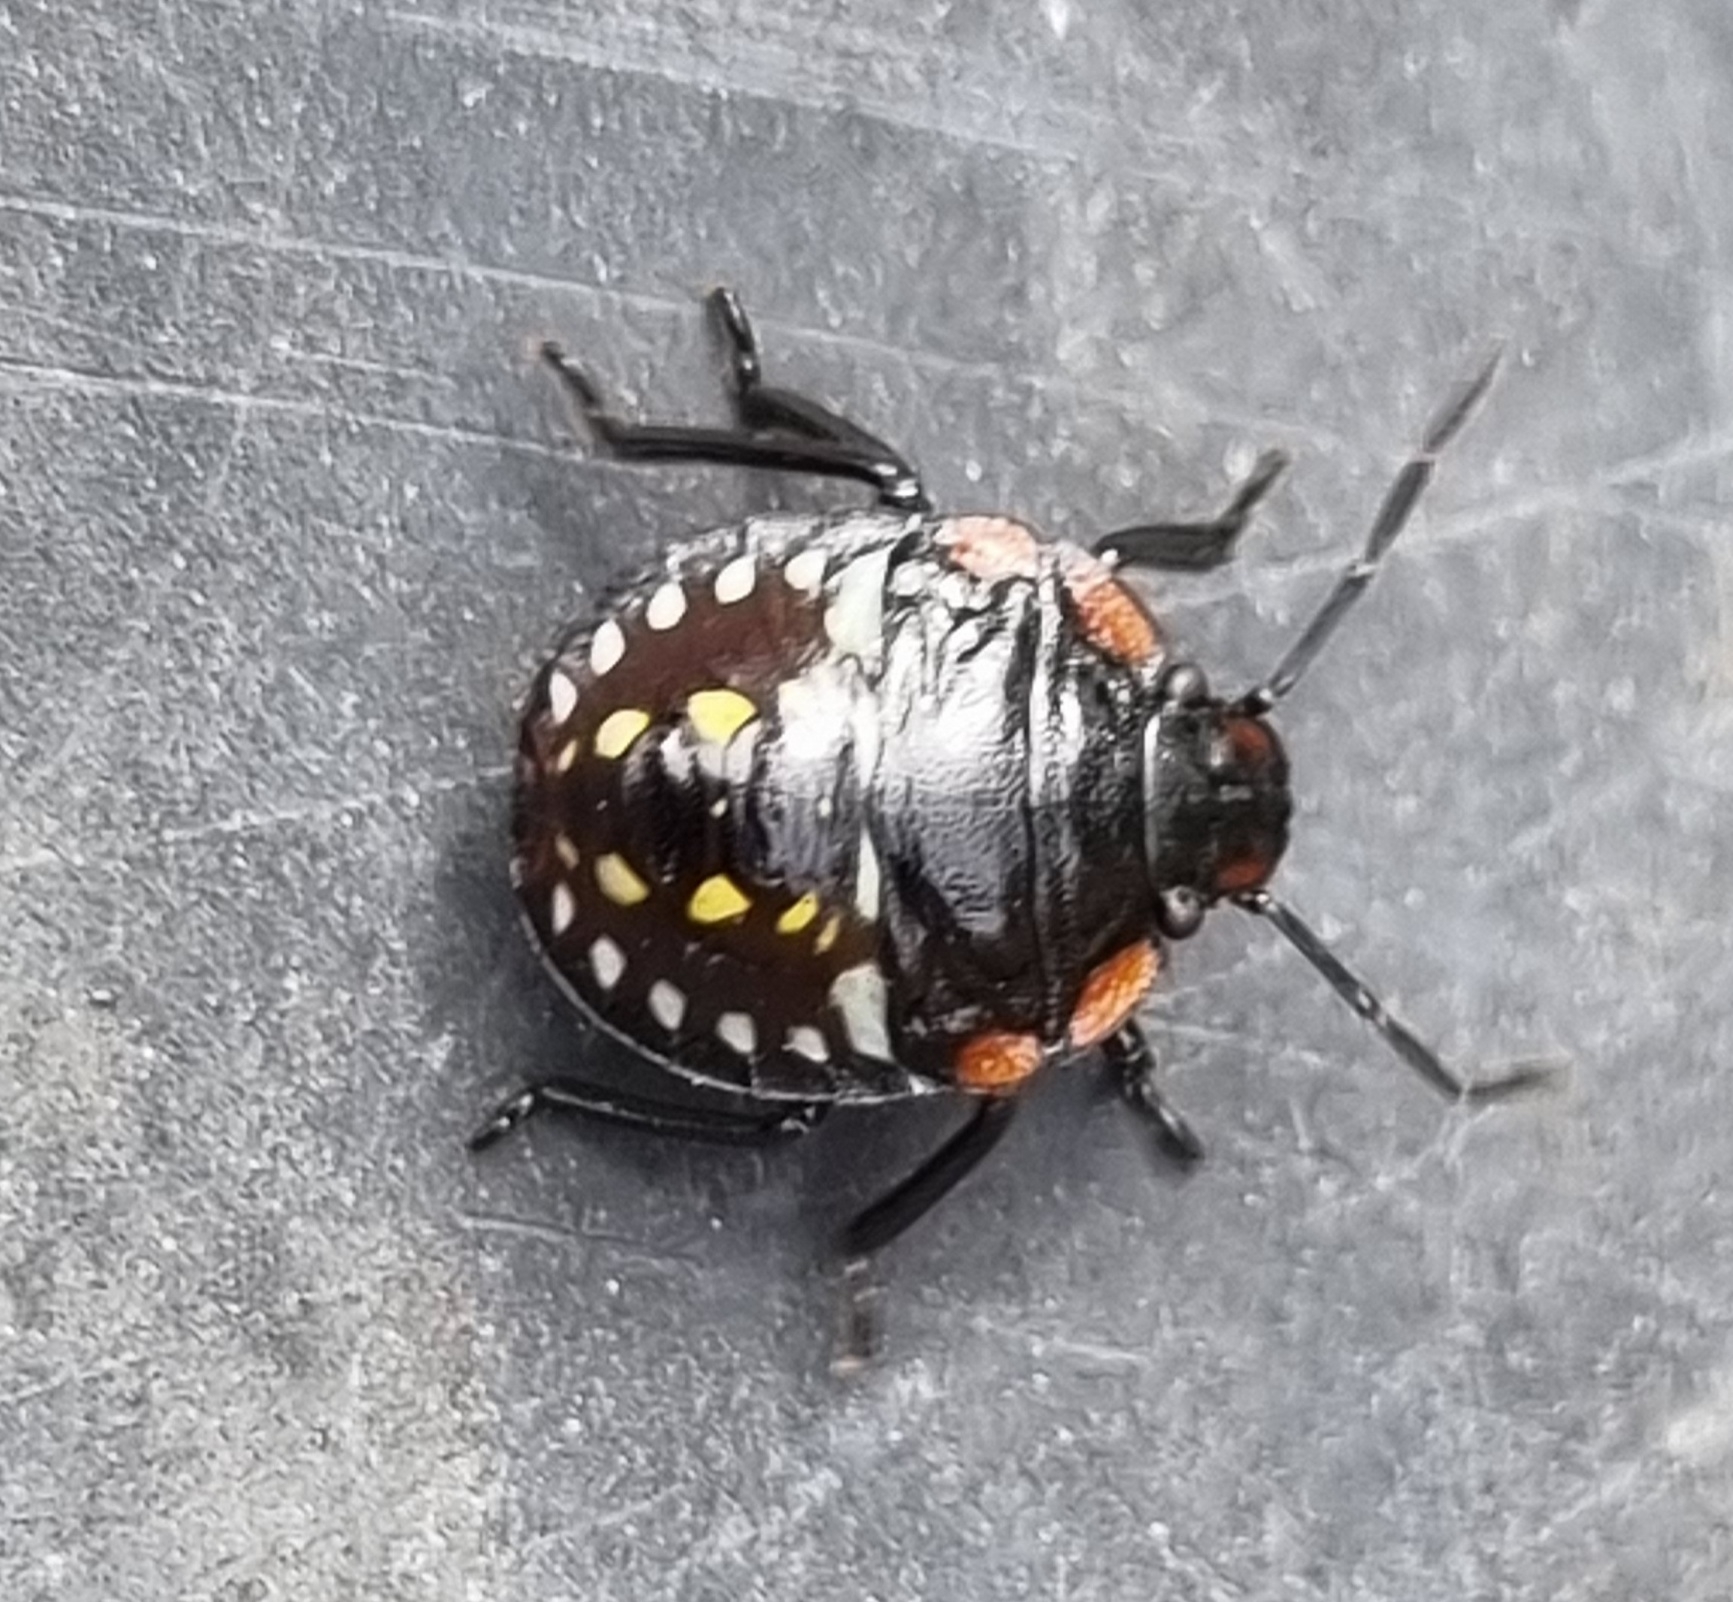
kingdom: Animalia
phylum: Arthropoda
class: Insecta
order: Hemiptera
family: Pentatomidae
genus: Nezara
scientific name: Nezara viridula
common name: Southern green stink bug
